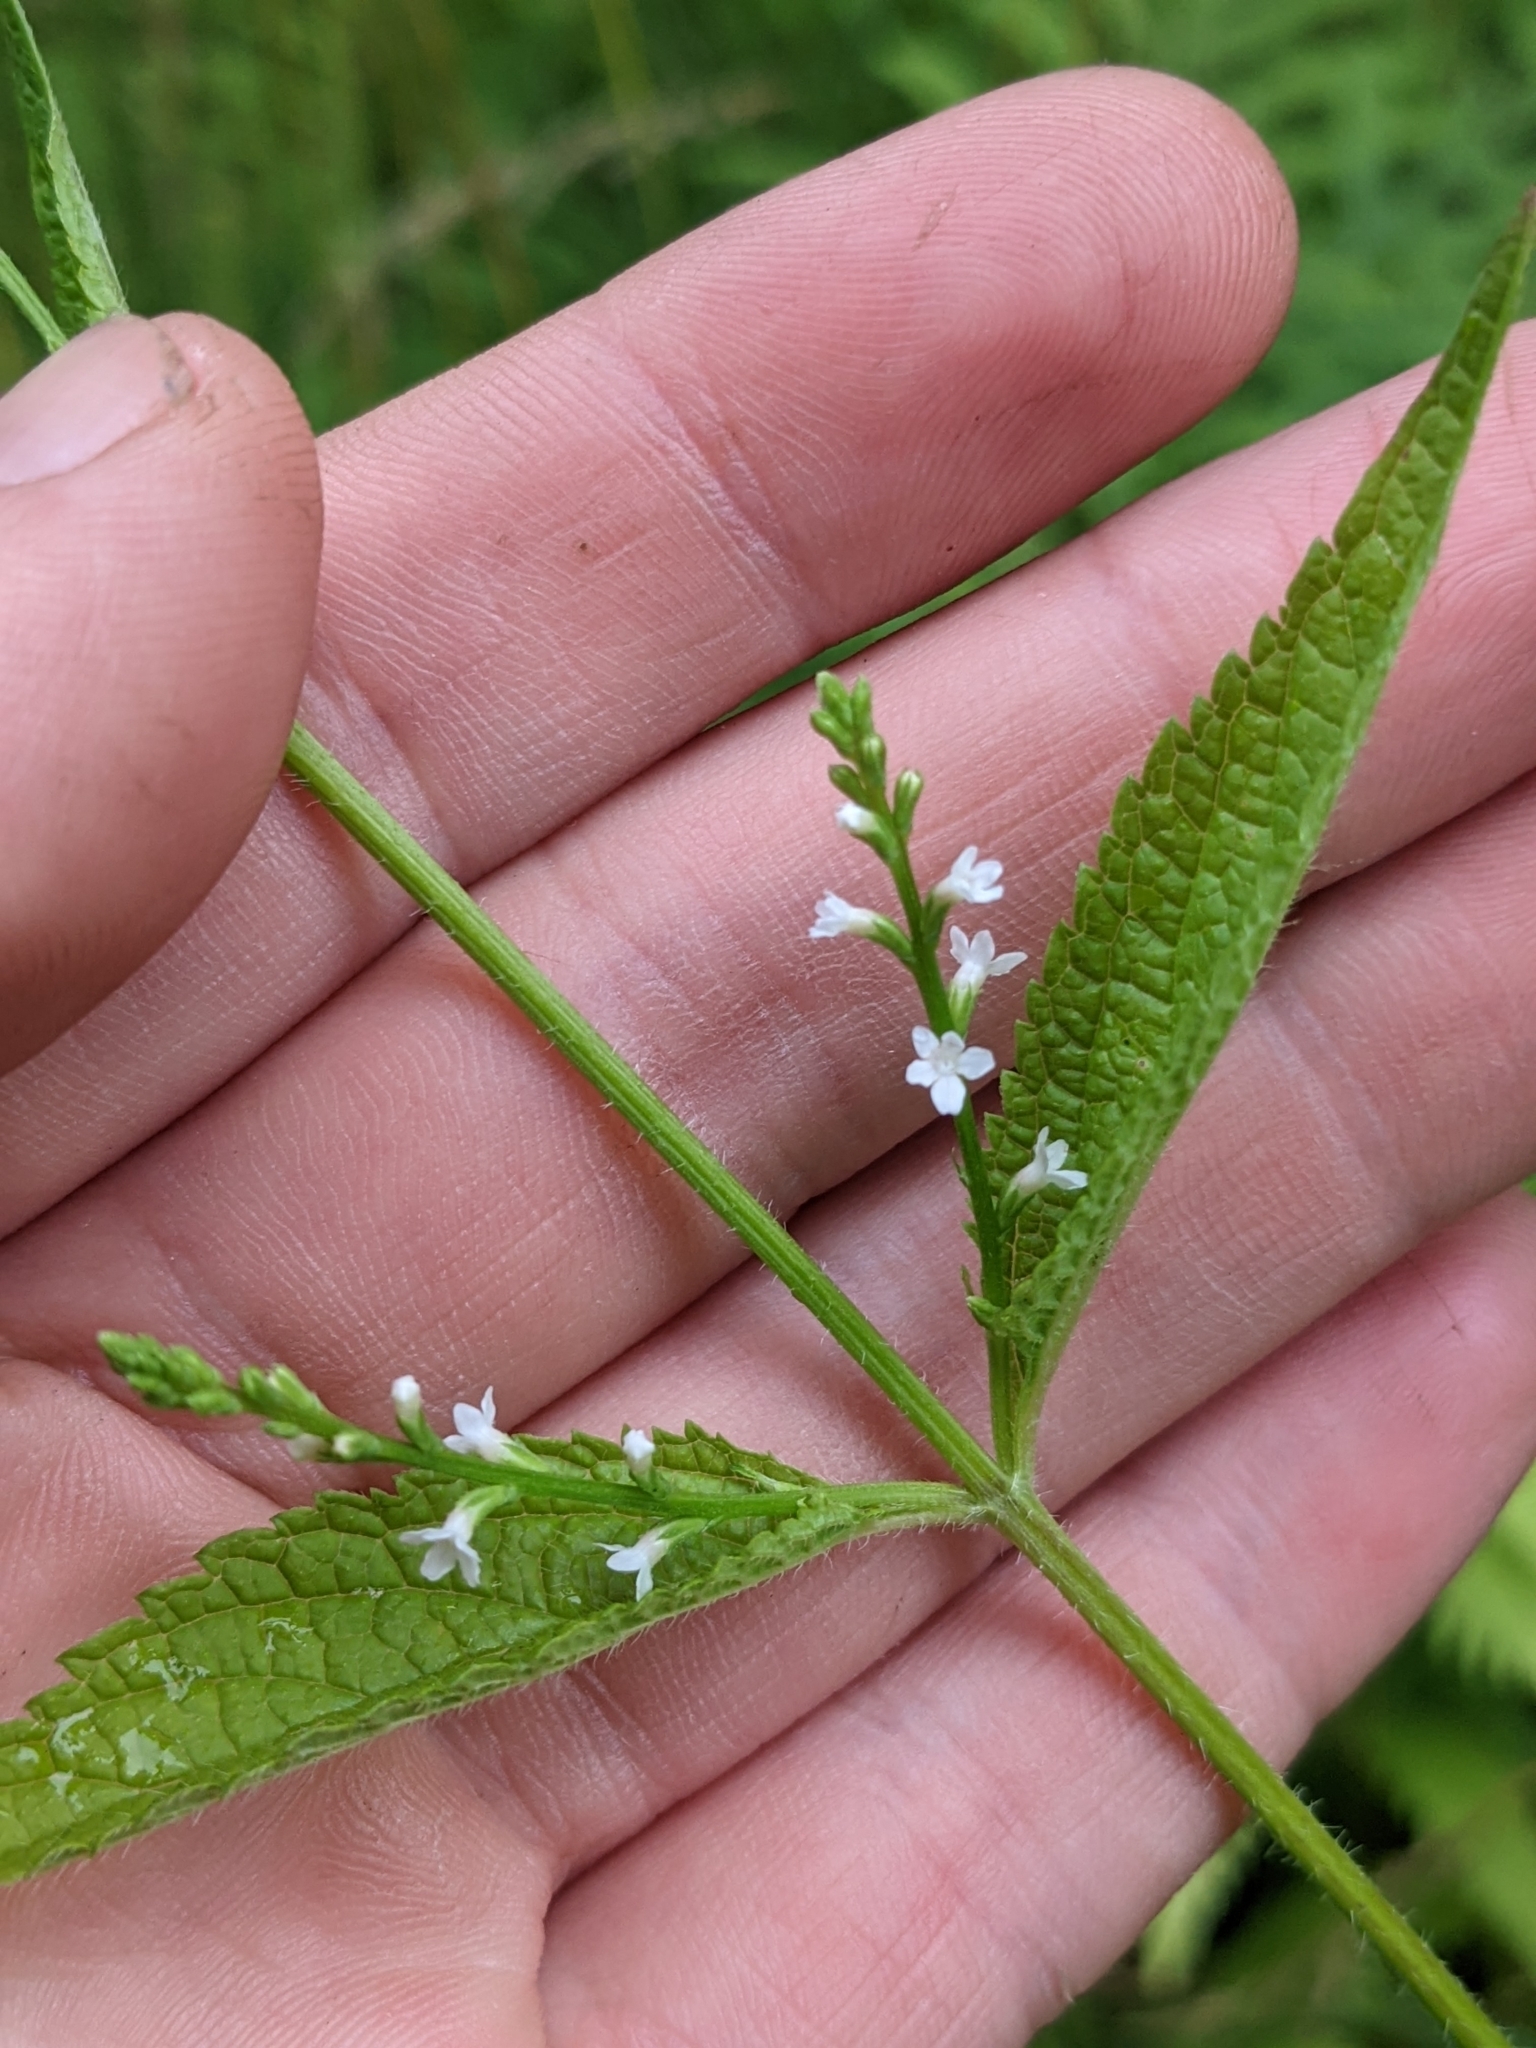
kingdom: Plantae
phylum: Tracheophyta
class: Magnoliopsida
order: Lamiales
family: Verbenaceae
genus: Verbena
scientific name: Verbena urticifolia
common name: Nettle-leaved vervain
